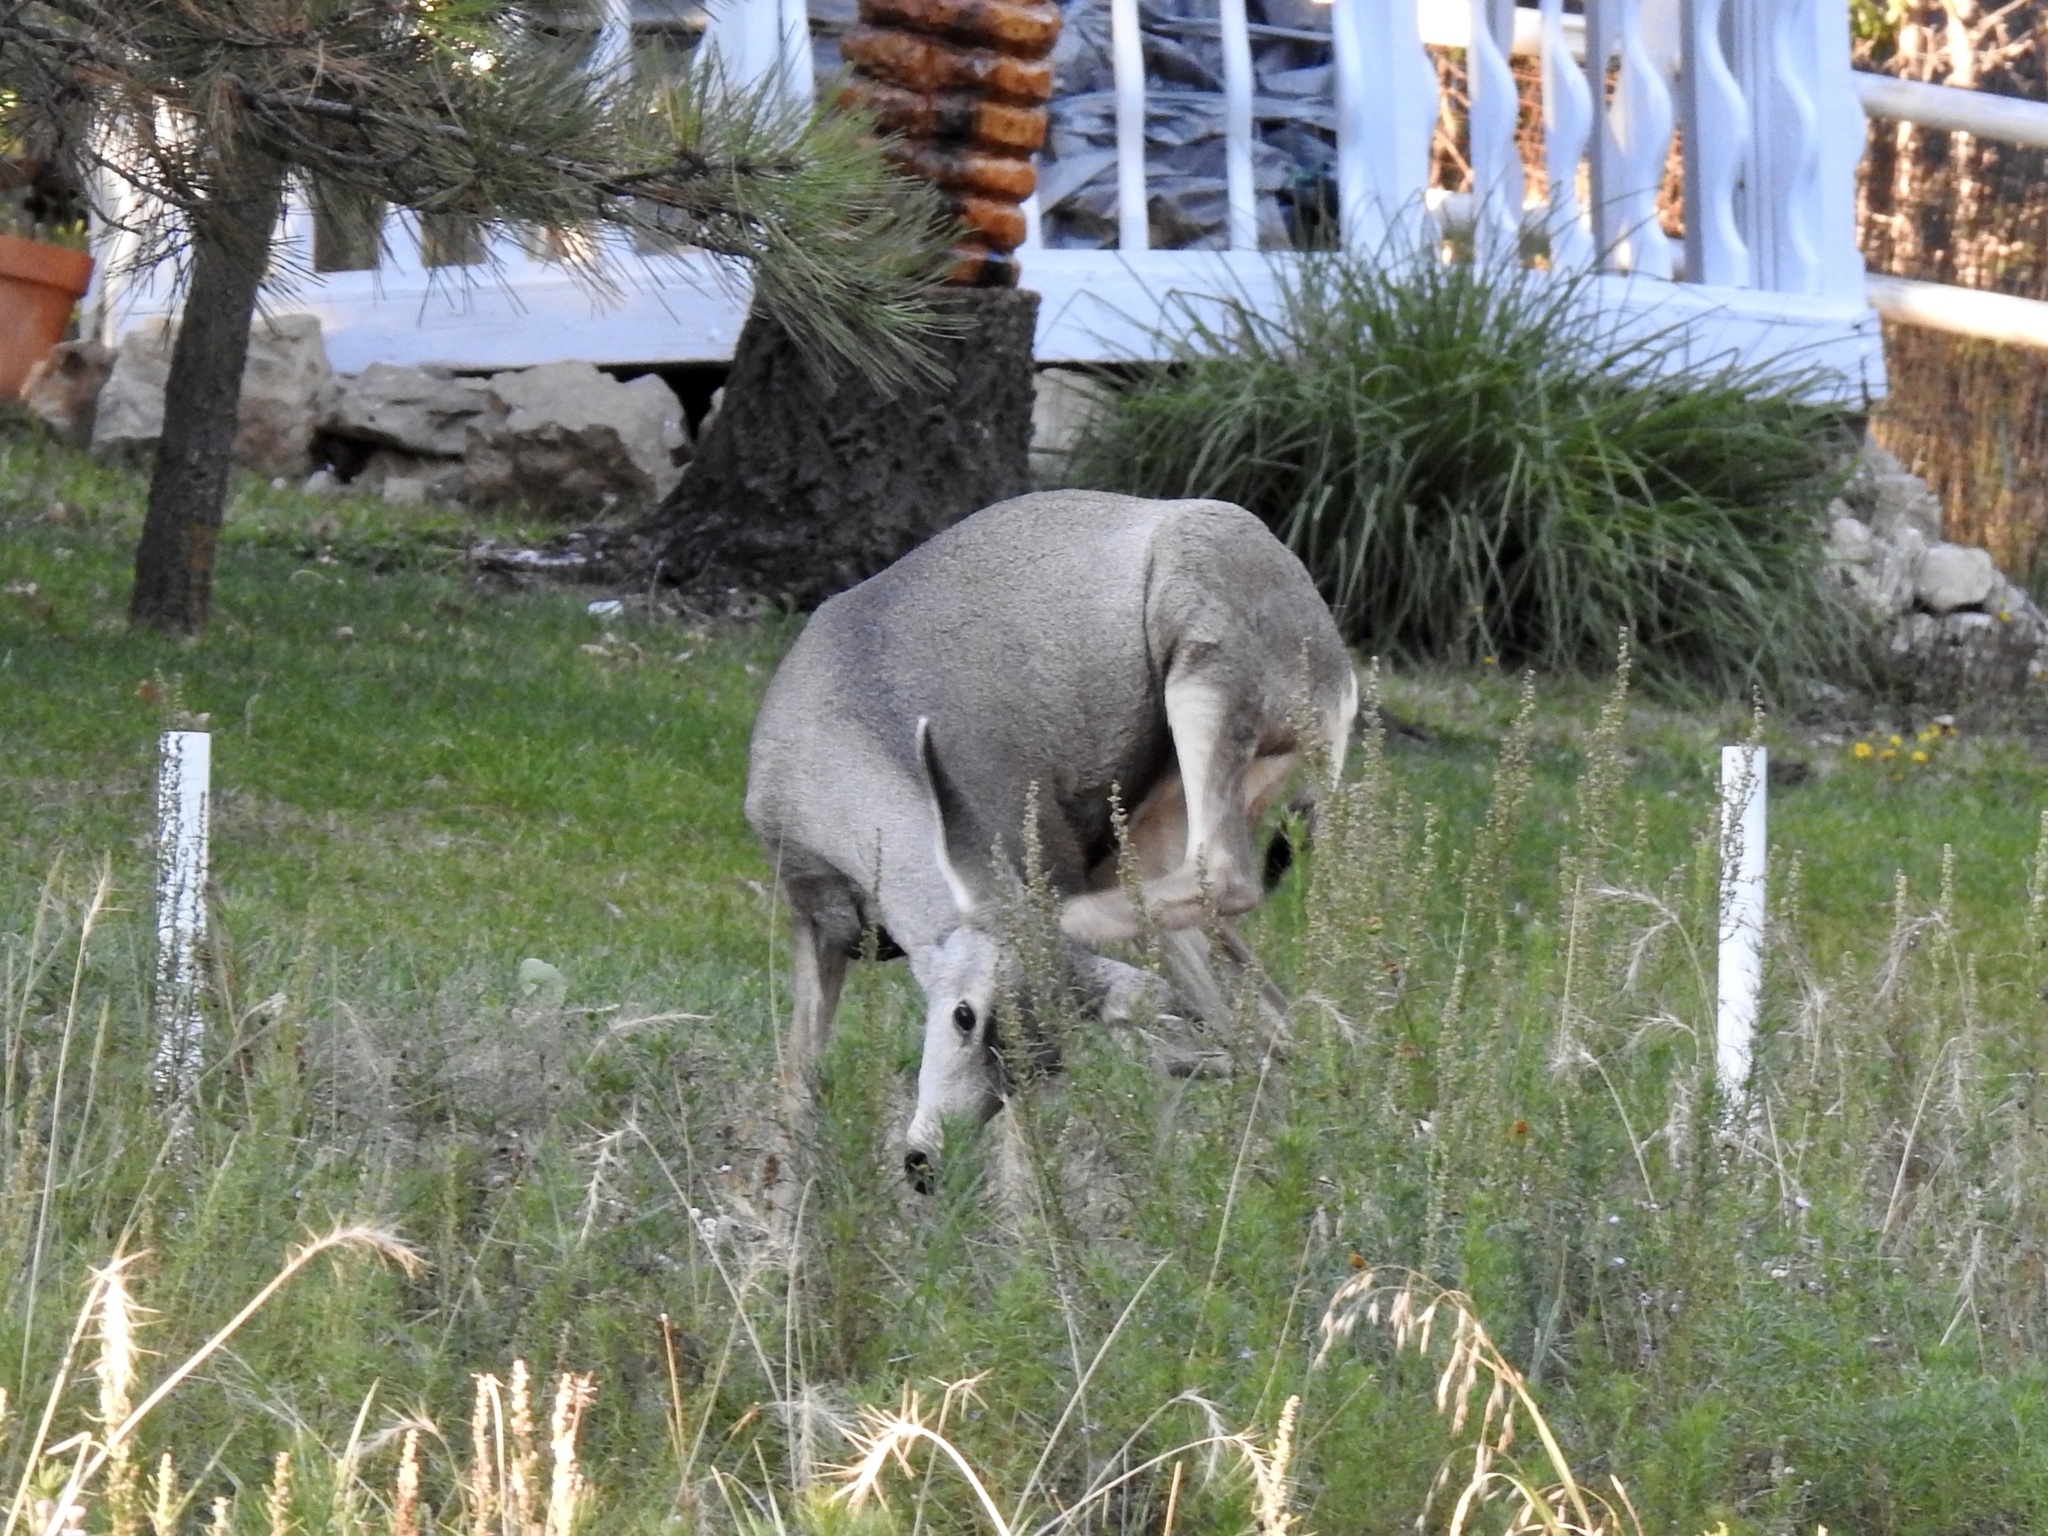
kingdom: Animalia
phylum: Chordata
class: Mammalia
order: Artiodactyla
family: Cervidae
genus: Odocoileus
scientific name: Odocoileus hemionus
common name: Mule deer
